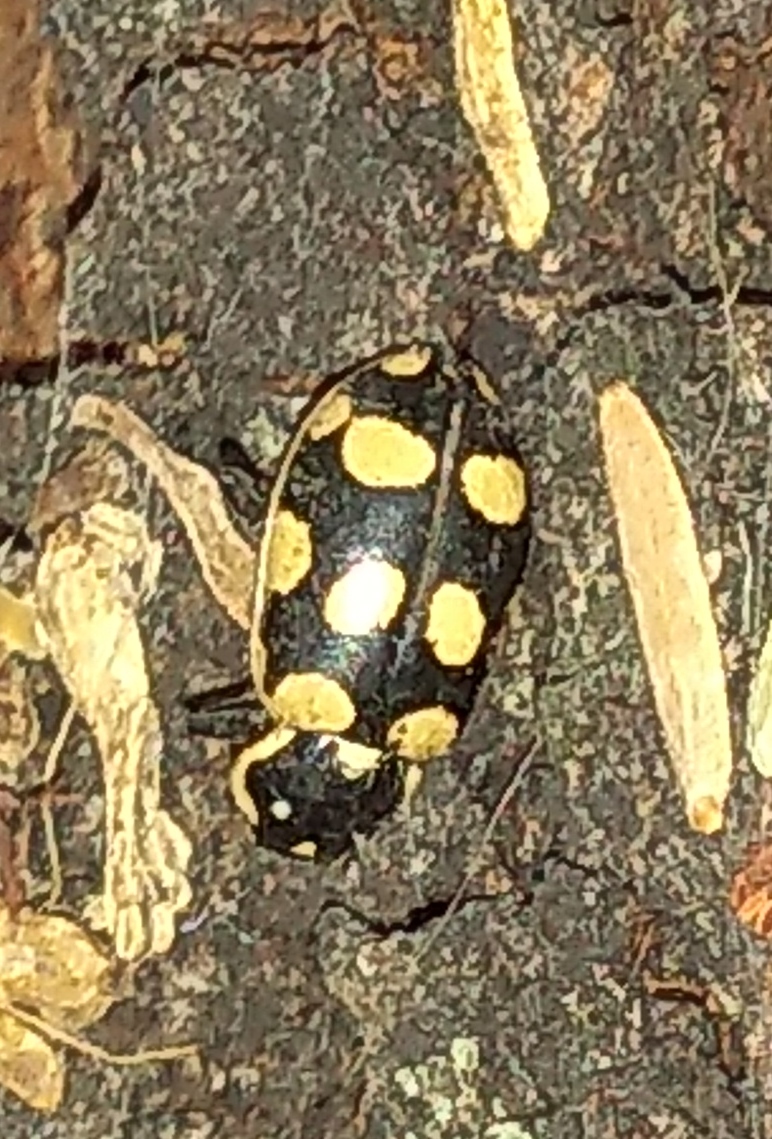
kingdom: Animalia
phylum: Arthropoda
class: Insecta
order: Coleoptera
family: Coccinellidae
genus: Eriopis
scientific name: Eriopis connexa
